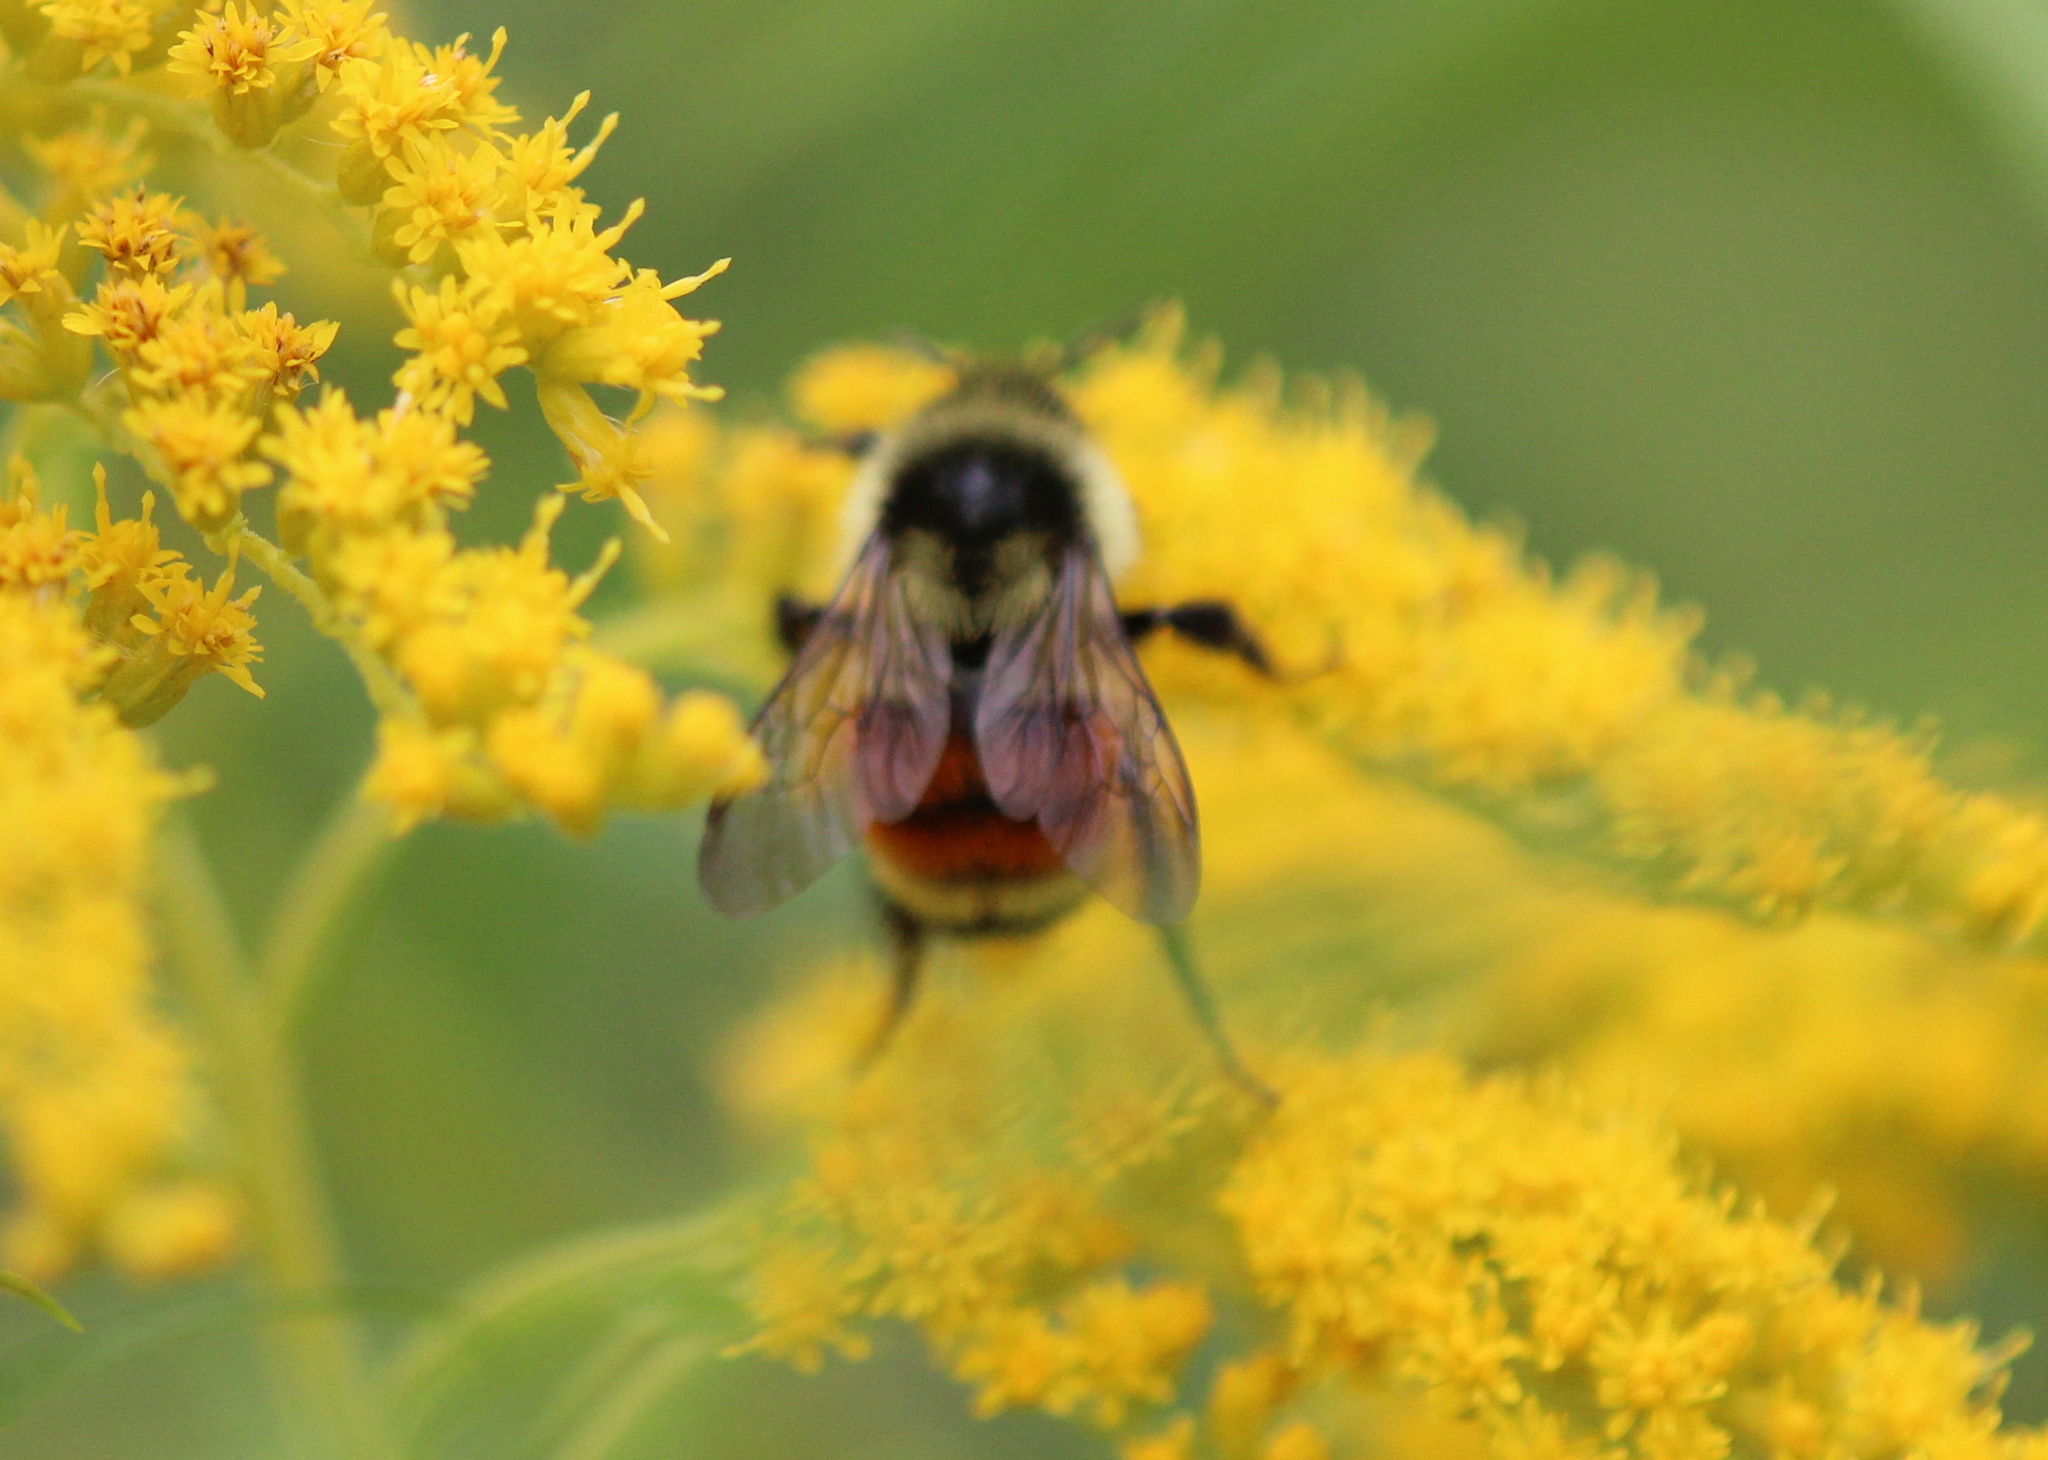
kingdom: Animalia
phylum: Arthropoda
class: Insecta
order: Hymenoptera
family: Apidae
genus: Bombus
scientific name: Bombus ternarius
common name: Tri-colored bumble bee
